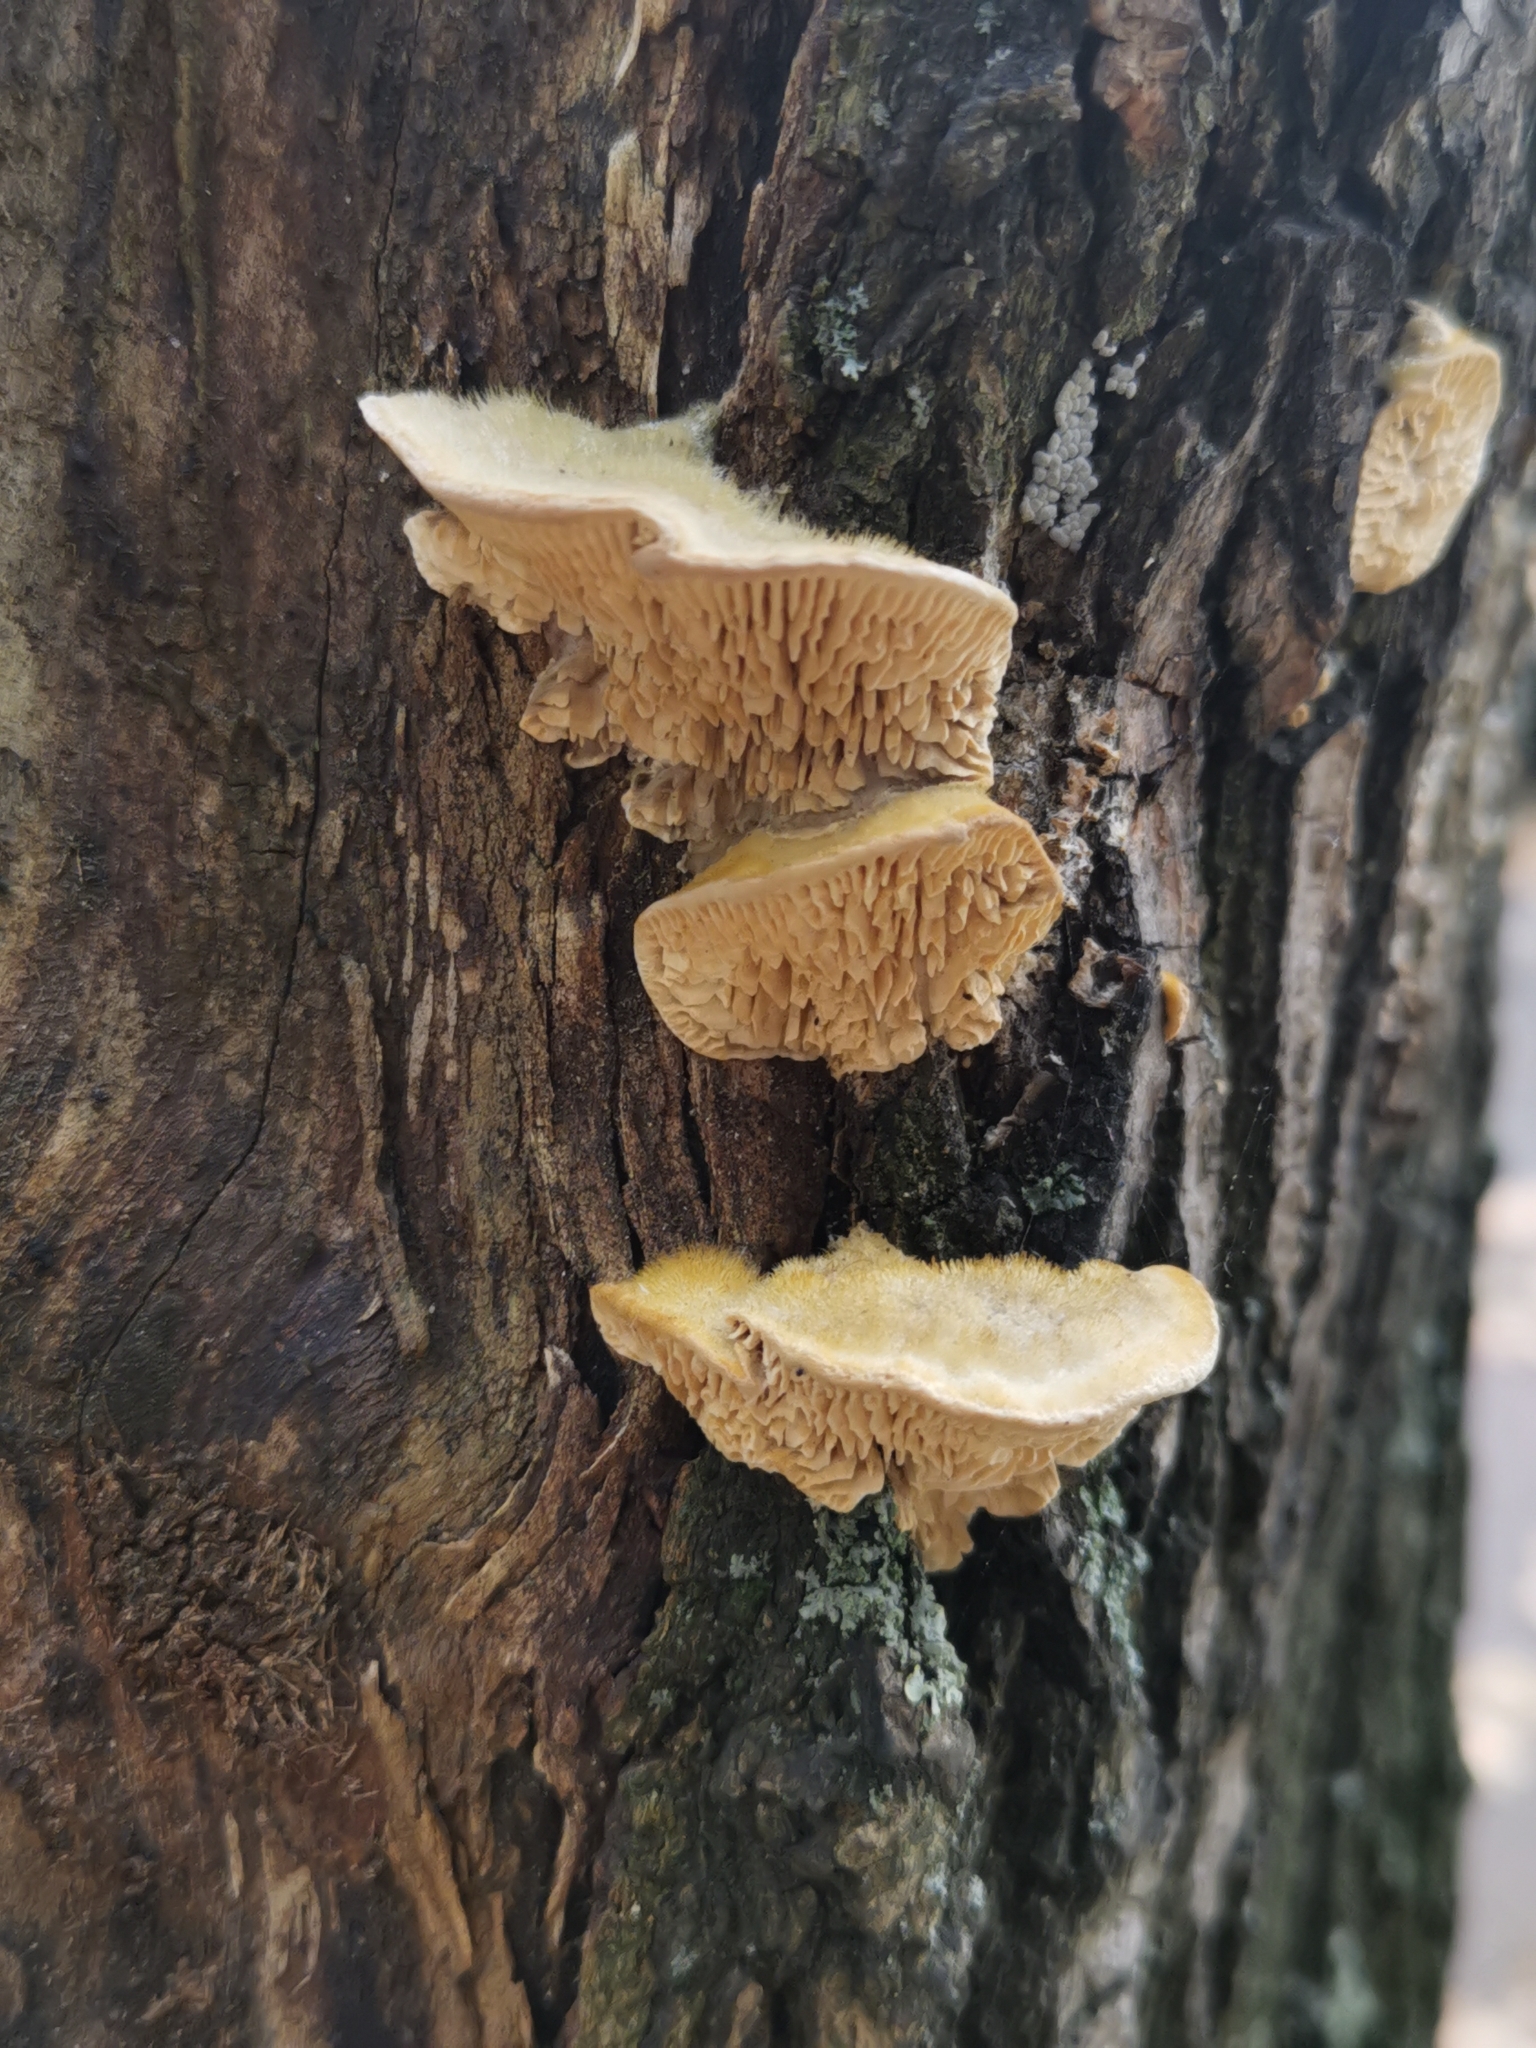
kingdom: Fungi
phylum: Basidiomycota
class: Agaricomycetes
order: Polyporales
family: Fomitopsidaceae
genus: Fomitopsis
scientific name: Fomitopsis
